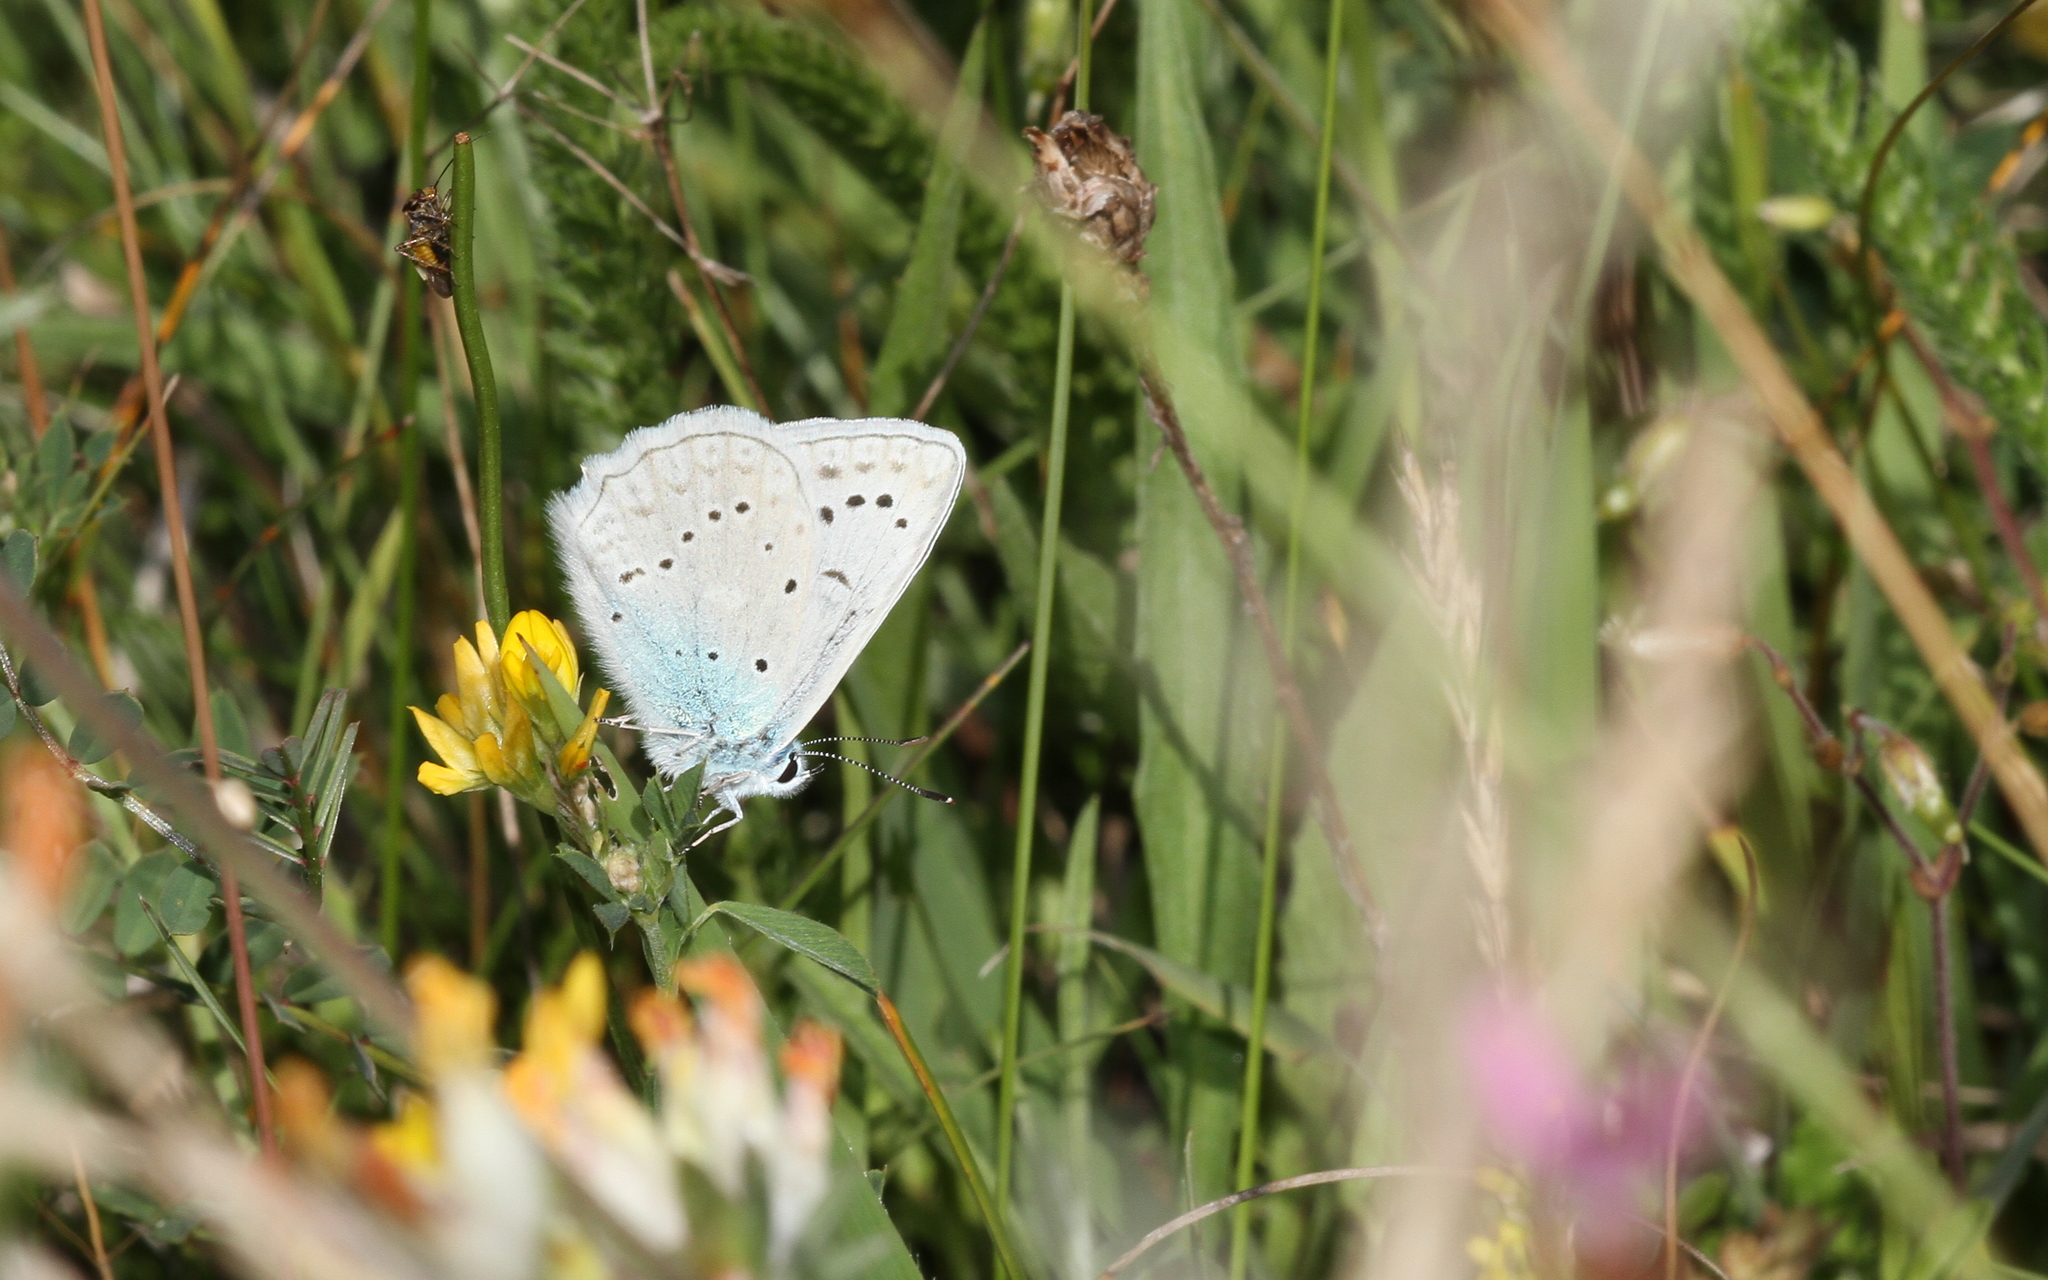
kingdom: Animalia
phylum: Arthropoda
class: Insecta
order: Lepidoptera
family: Lycaenidae
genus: Polyommatus
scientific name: Polyommatus daphnis
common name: Meleager's blue
